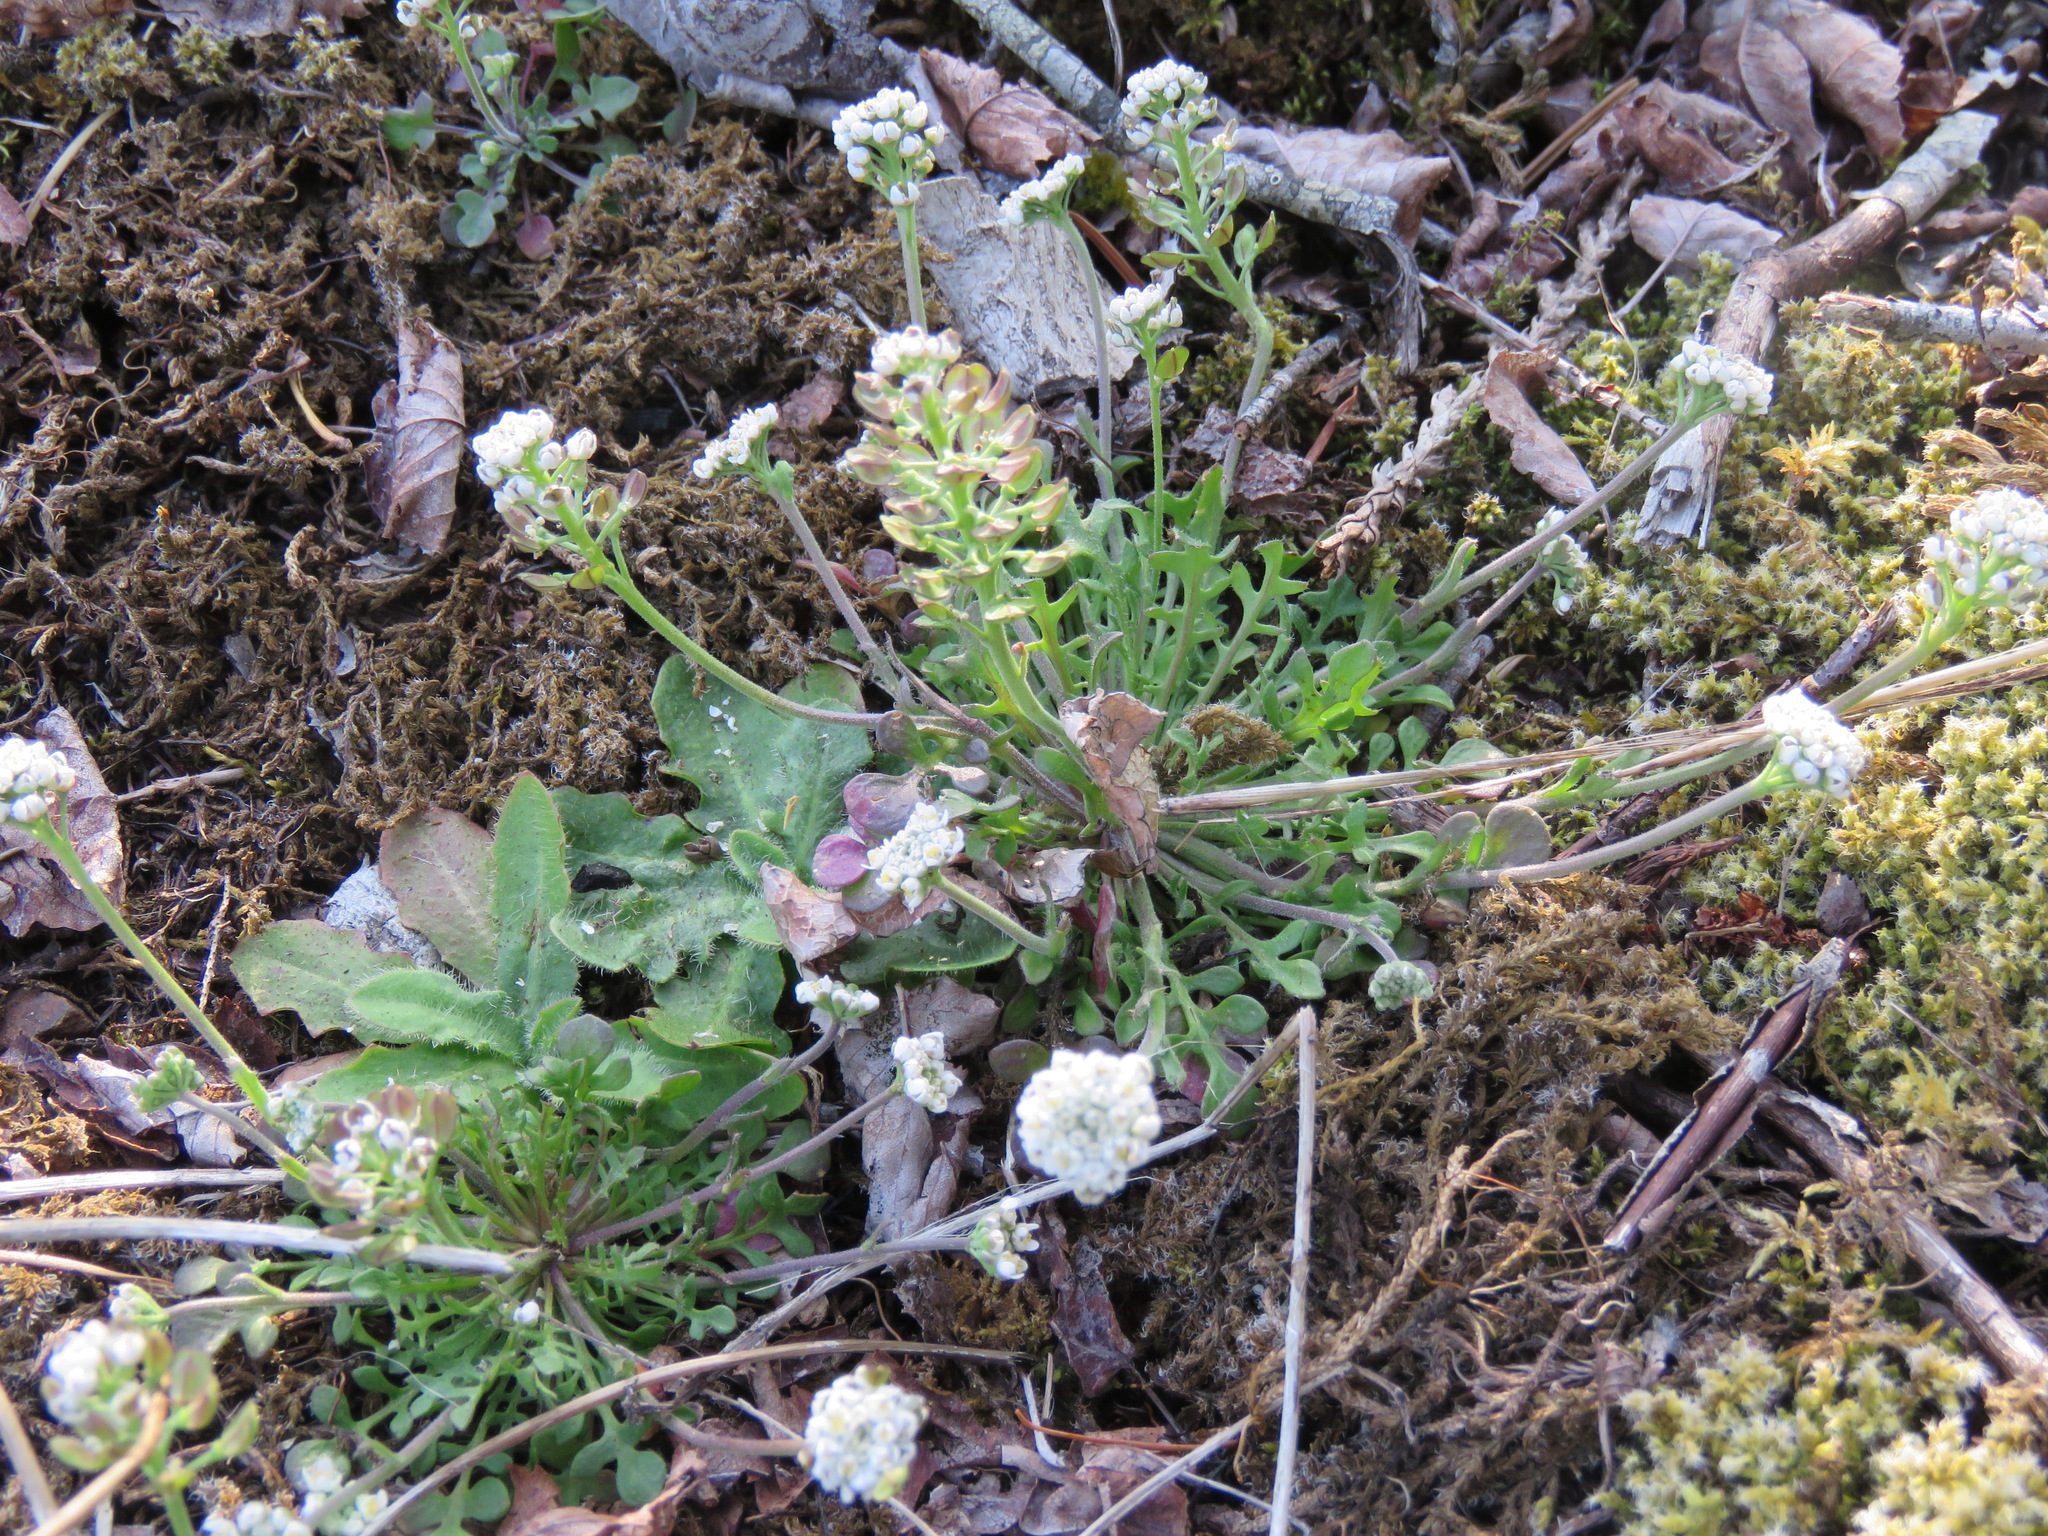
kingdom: Plantae
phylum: Tracheophyta
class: Magnoliopsida
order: Brassicales
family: Brassicaceae
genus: Teesdalia
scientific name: Teesdalia nudicaulis
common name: Shepherd's cress
